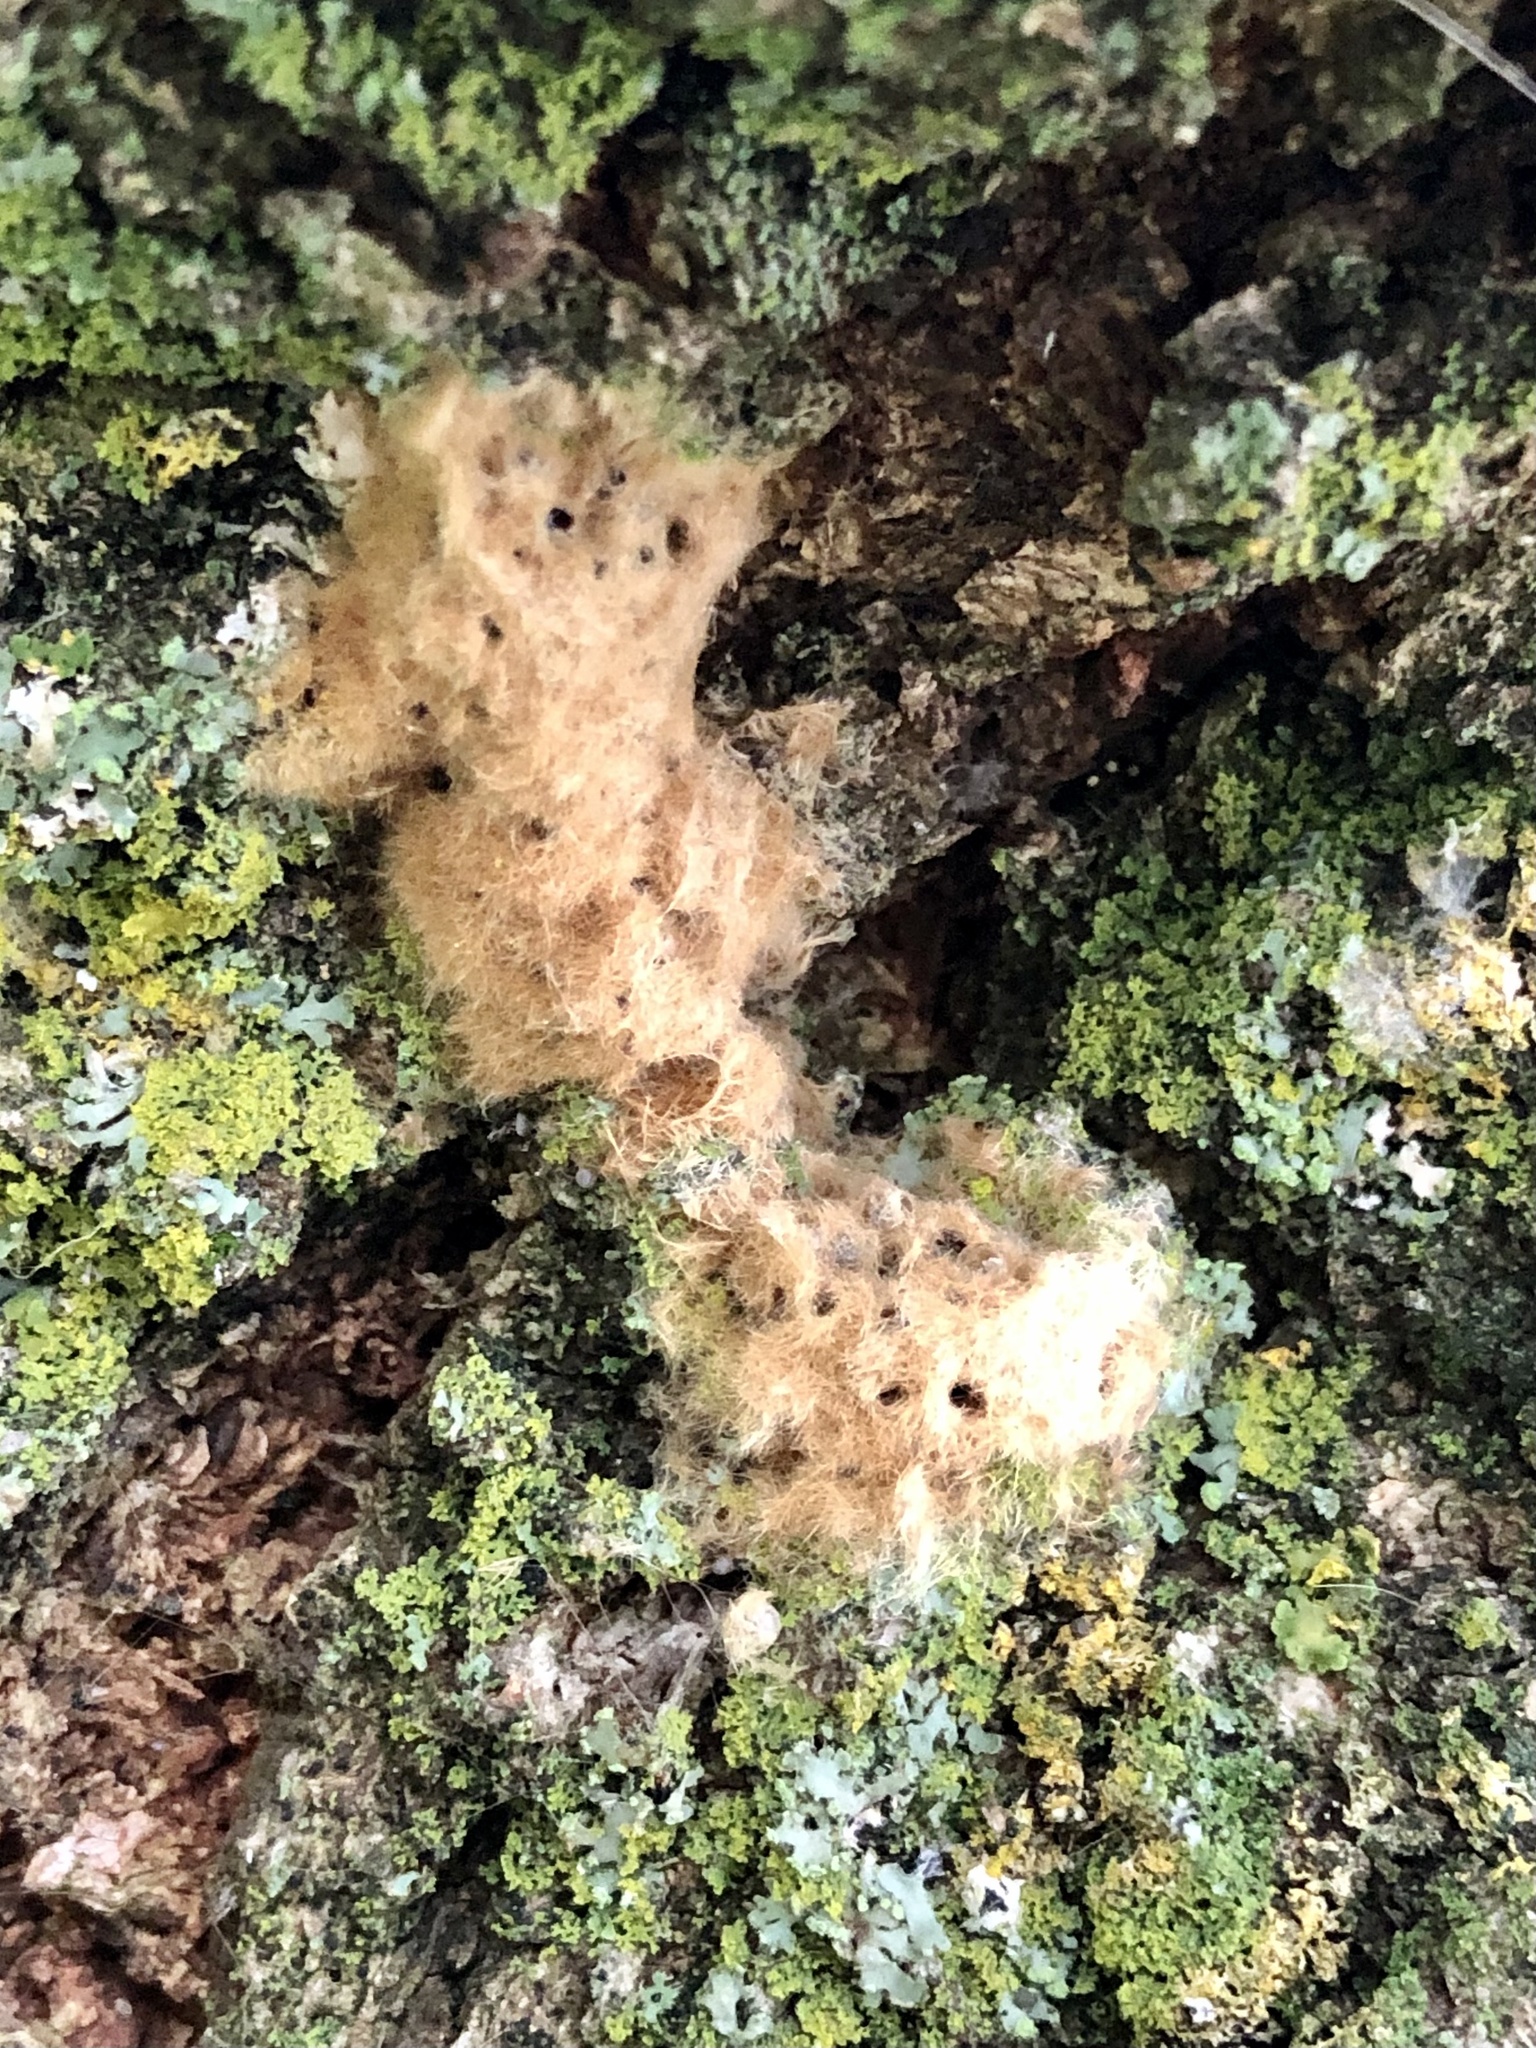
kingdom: Animalia
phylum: Arthropoda
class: Insecta
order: Lepidoptera
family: Erebidae
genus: Lymantria
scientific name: Lymantria dispar
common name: Gypsy moth
